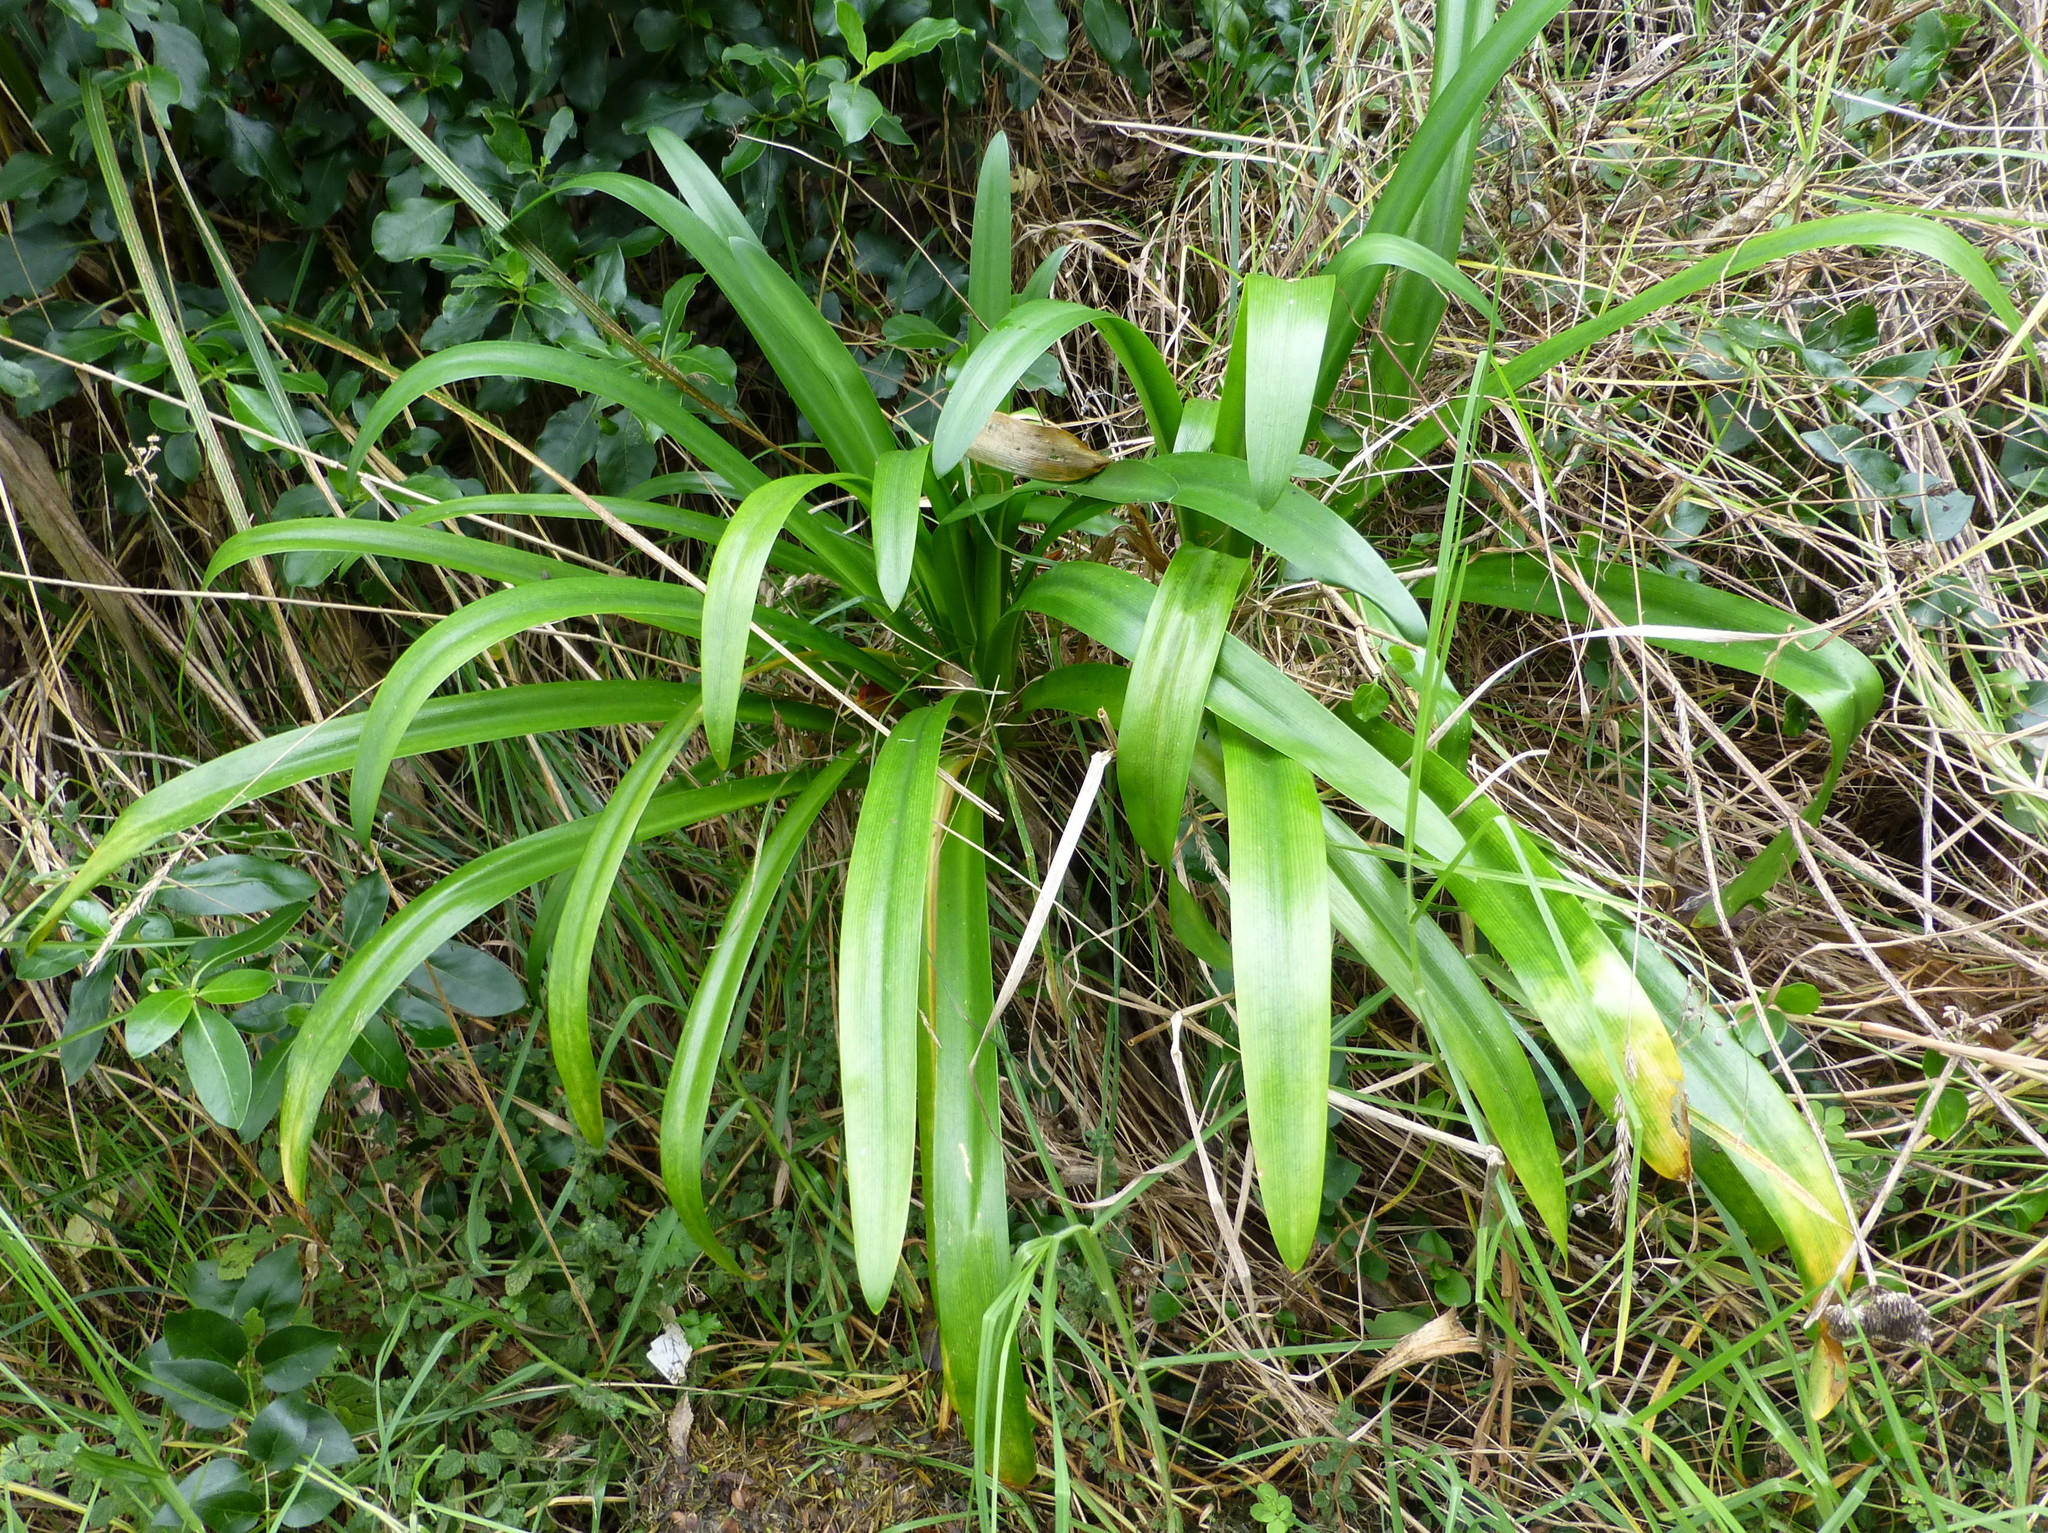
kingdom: Plantae
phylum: Tracheophyta
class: Liliopsida
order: Asparagales
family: Amaryllidaceae
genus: Agapanthus
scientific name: Agapanthus praecox
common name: African-lily
